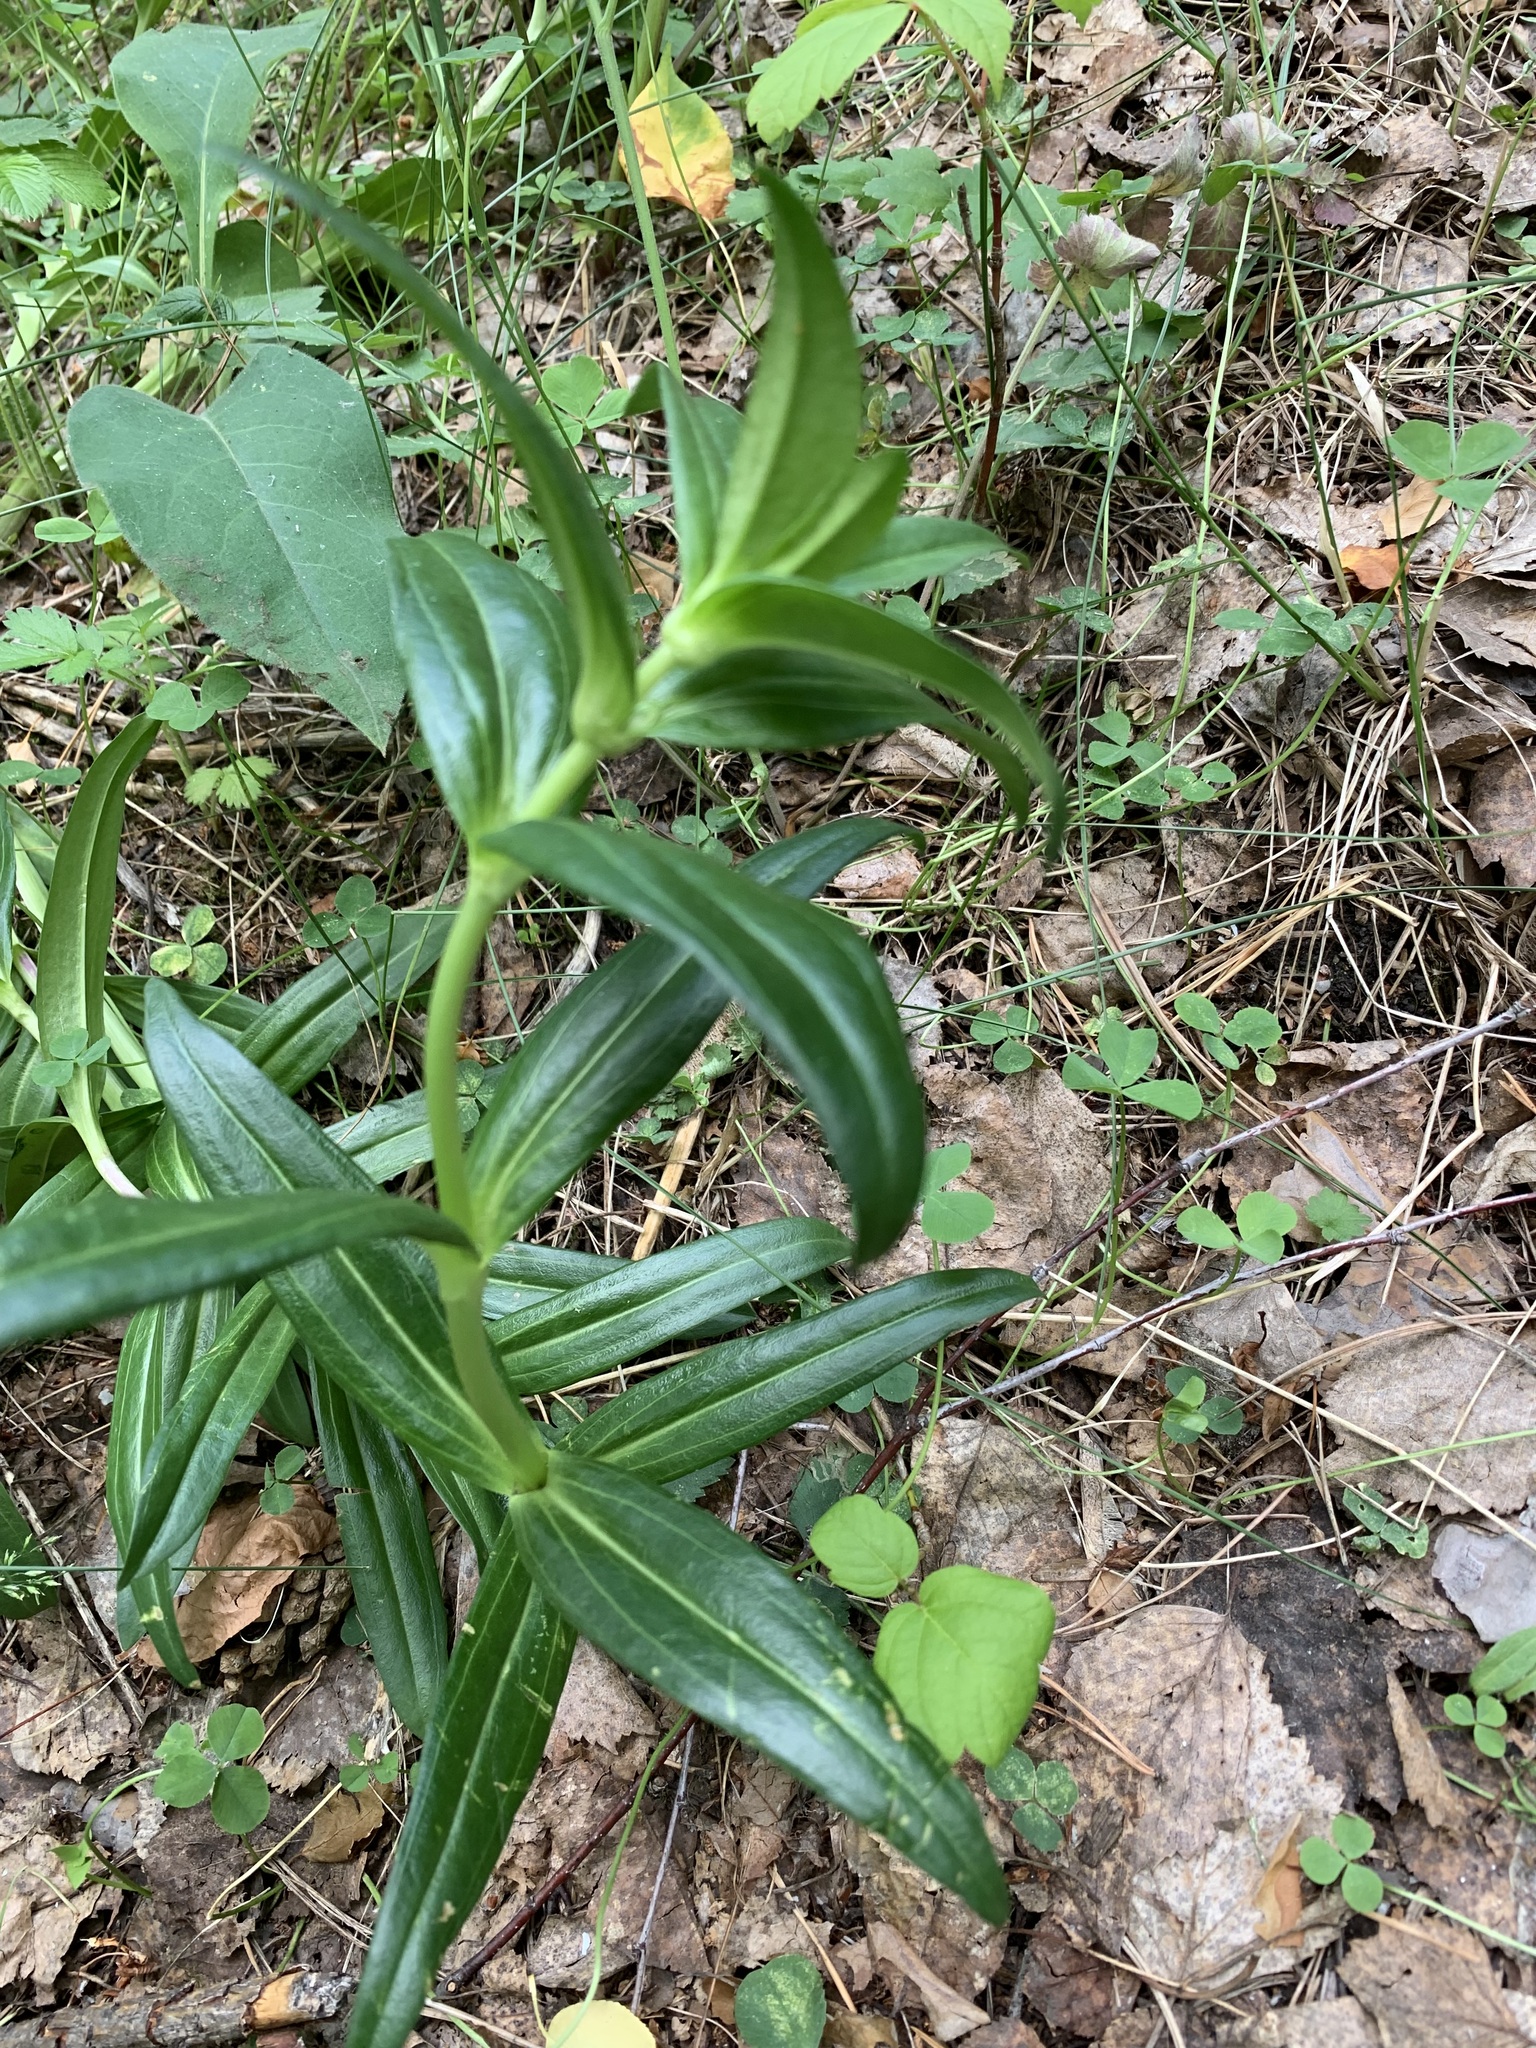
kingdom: Plantae
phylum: Tracheophyta
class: Magnoliopsida
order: Gentianales
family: Gentianaceae
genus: Gentiana
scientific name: Gentiana cruciata
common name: Cross gentian
